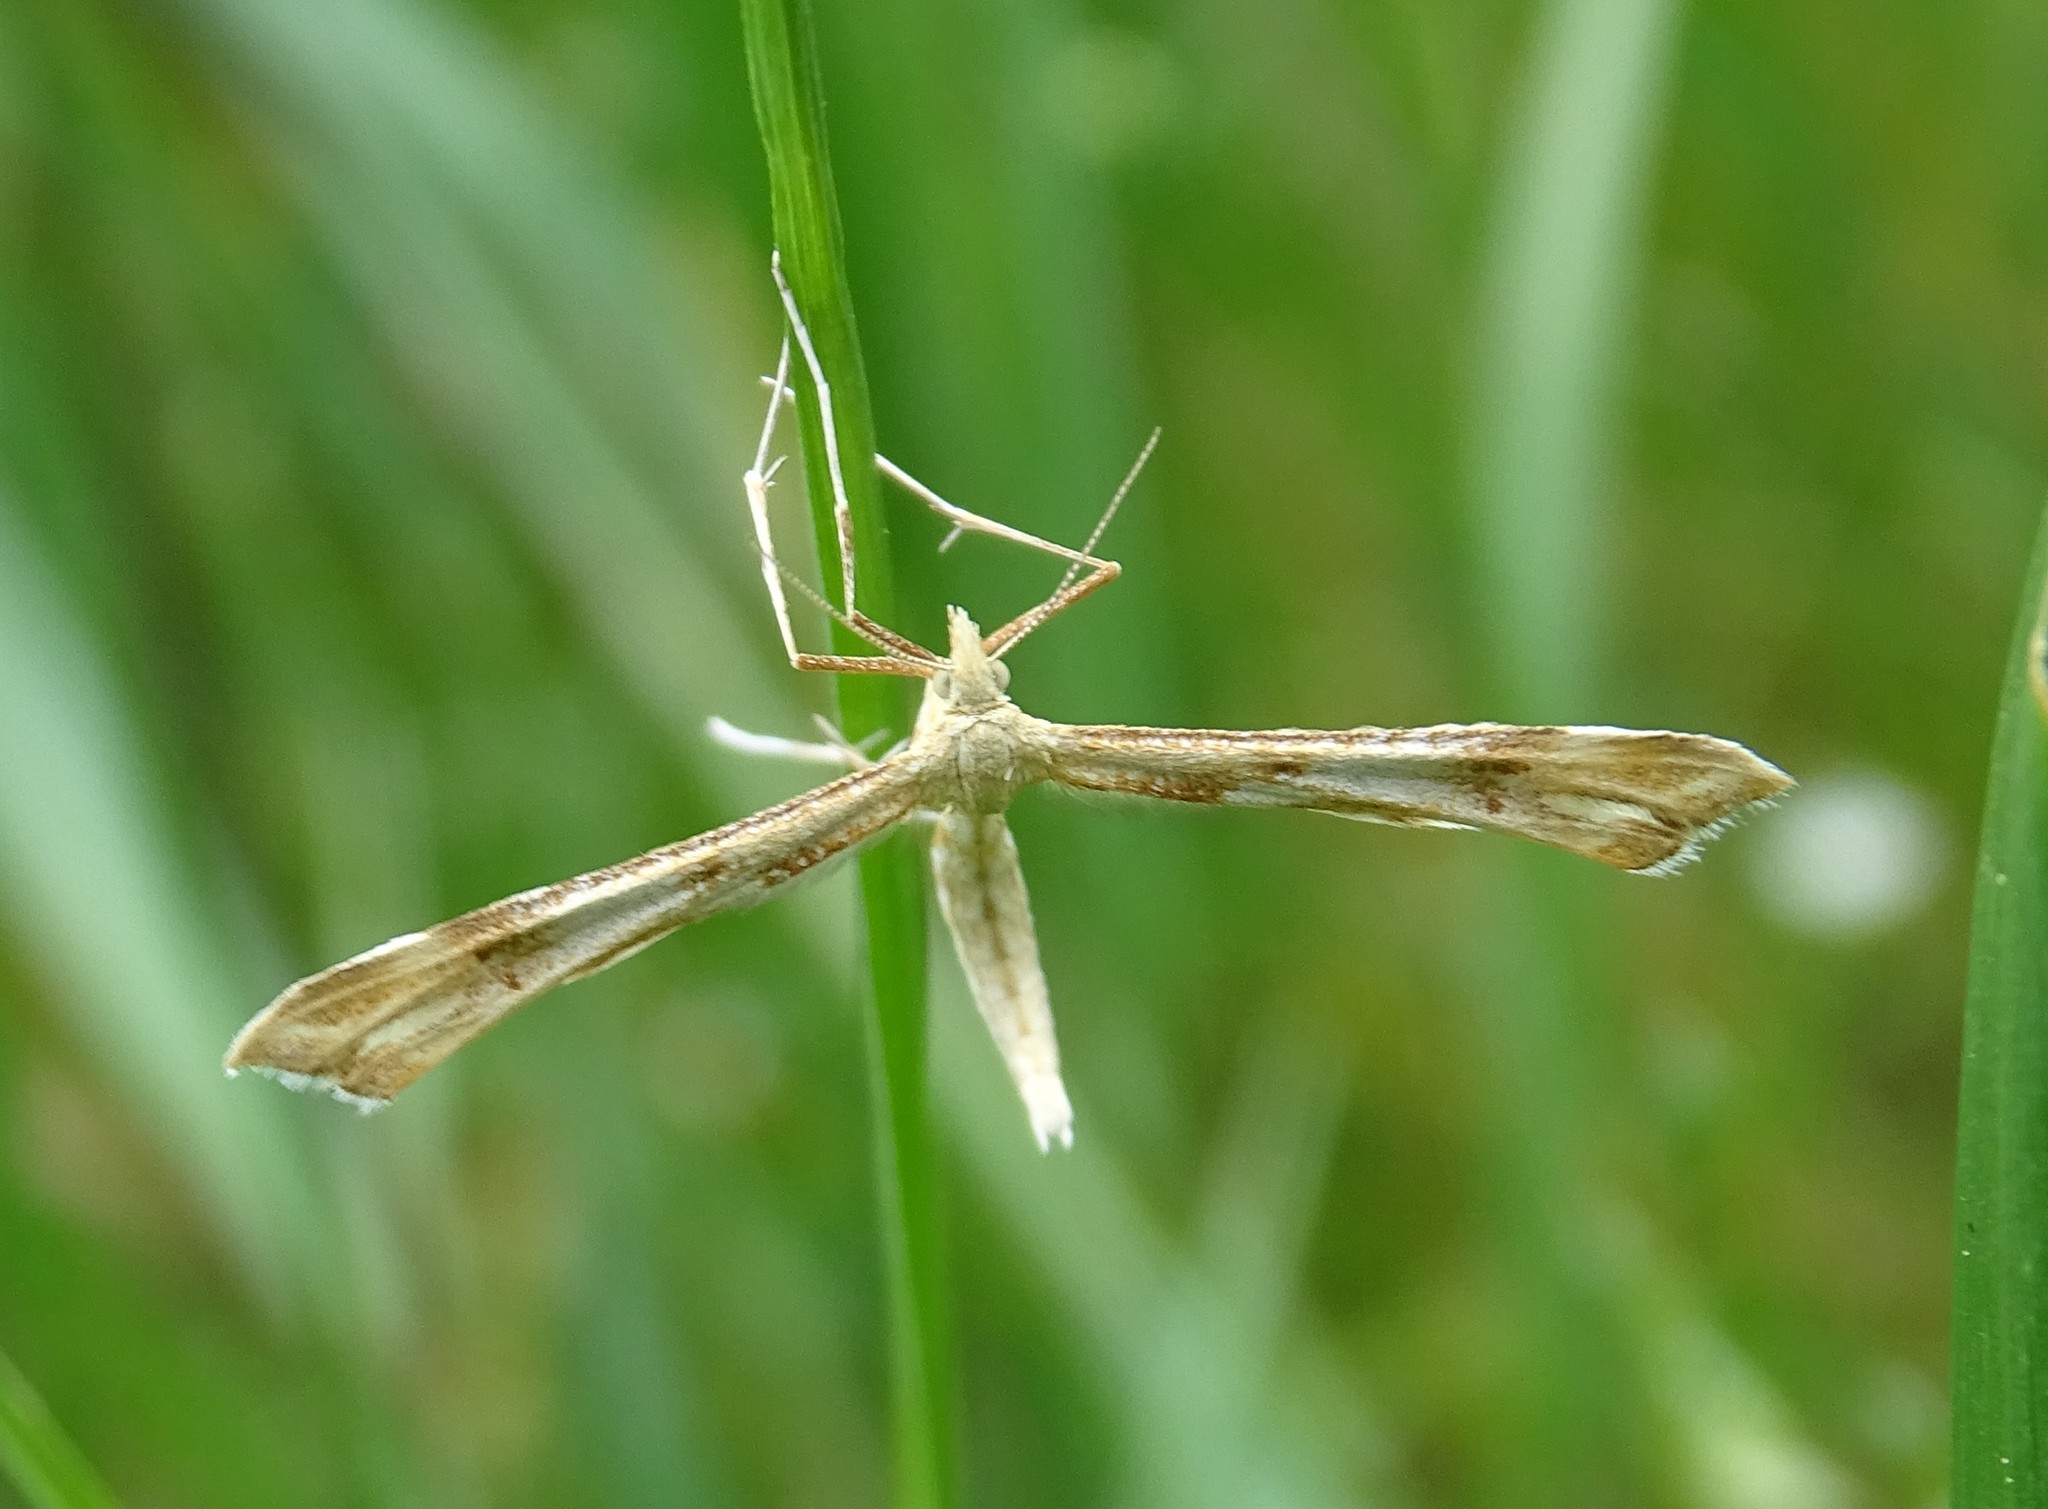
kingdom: Animalia
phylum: Arthropoda
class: Insecta
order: Lepidoptera
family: Pterophoridae
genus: Gillmeria
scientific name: Gillmeria pallidactyla
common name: Yarrow plume
